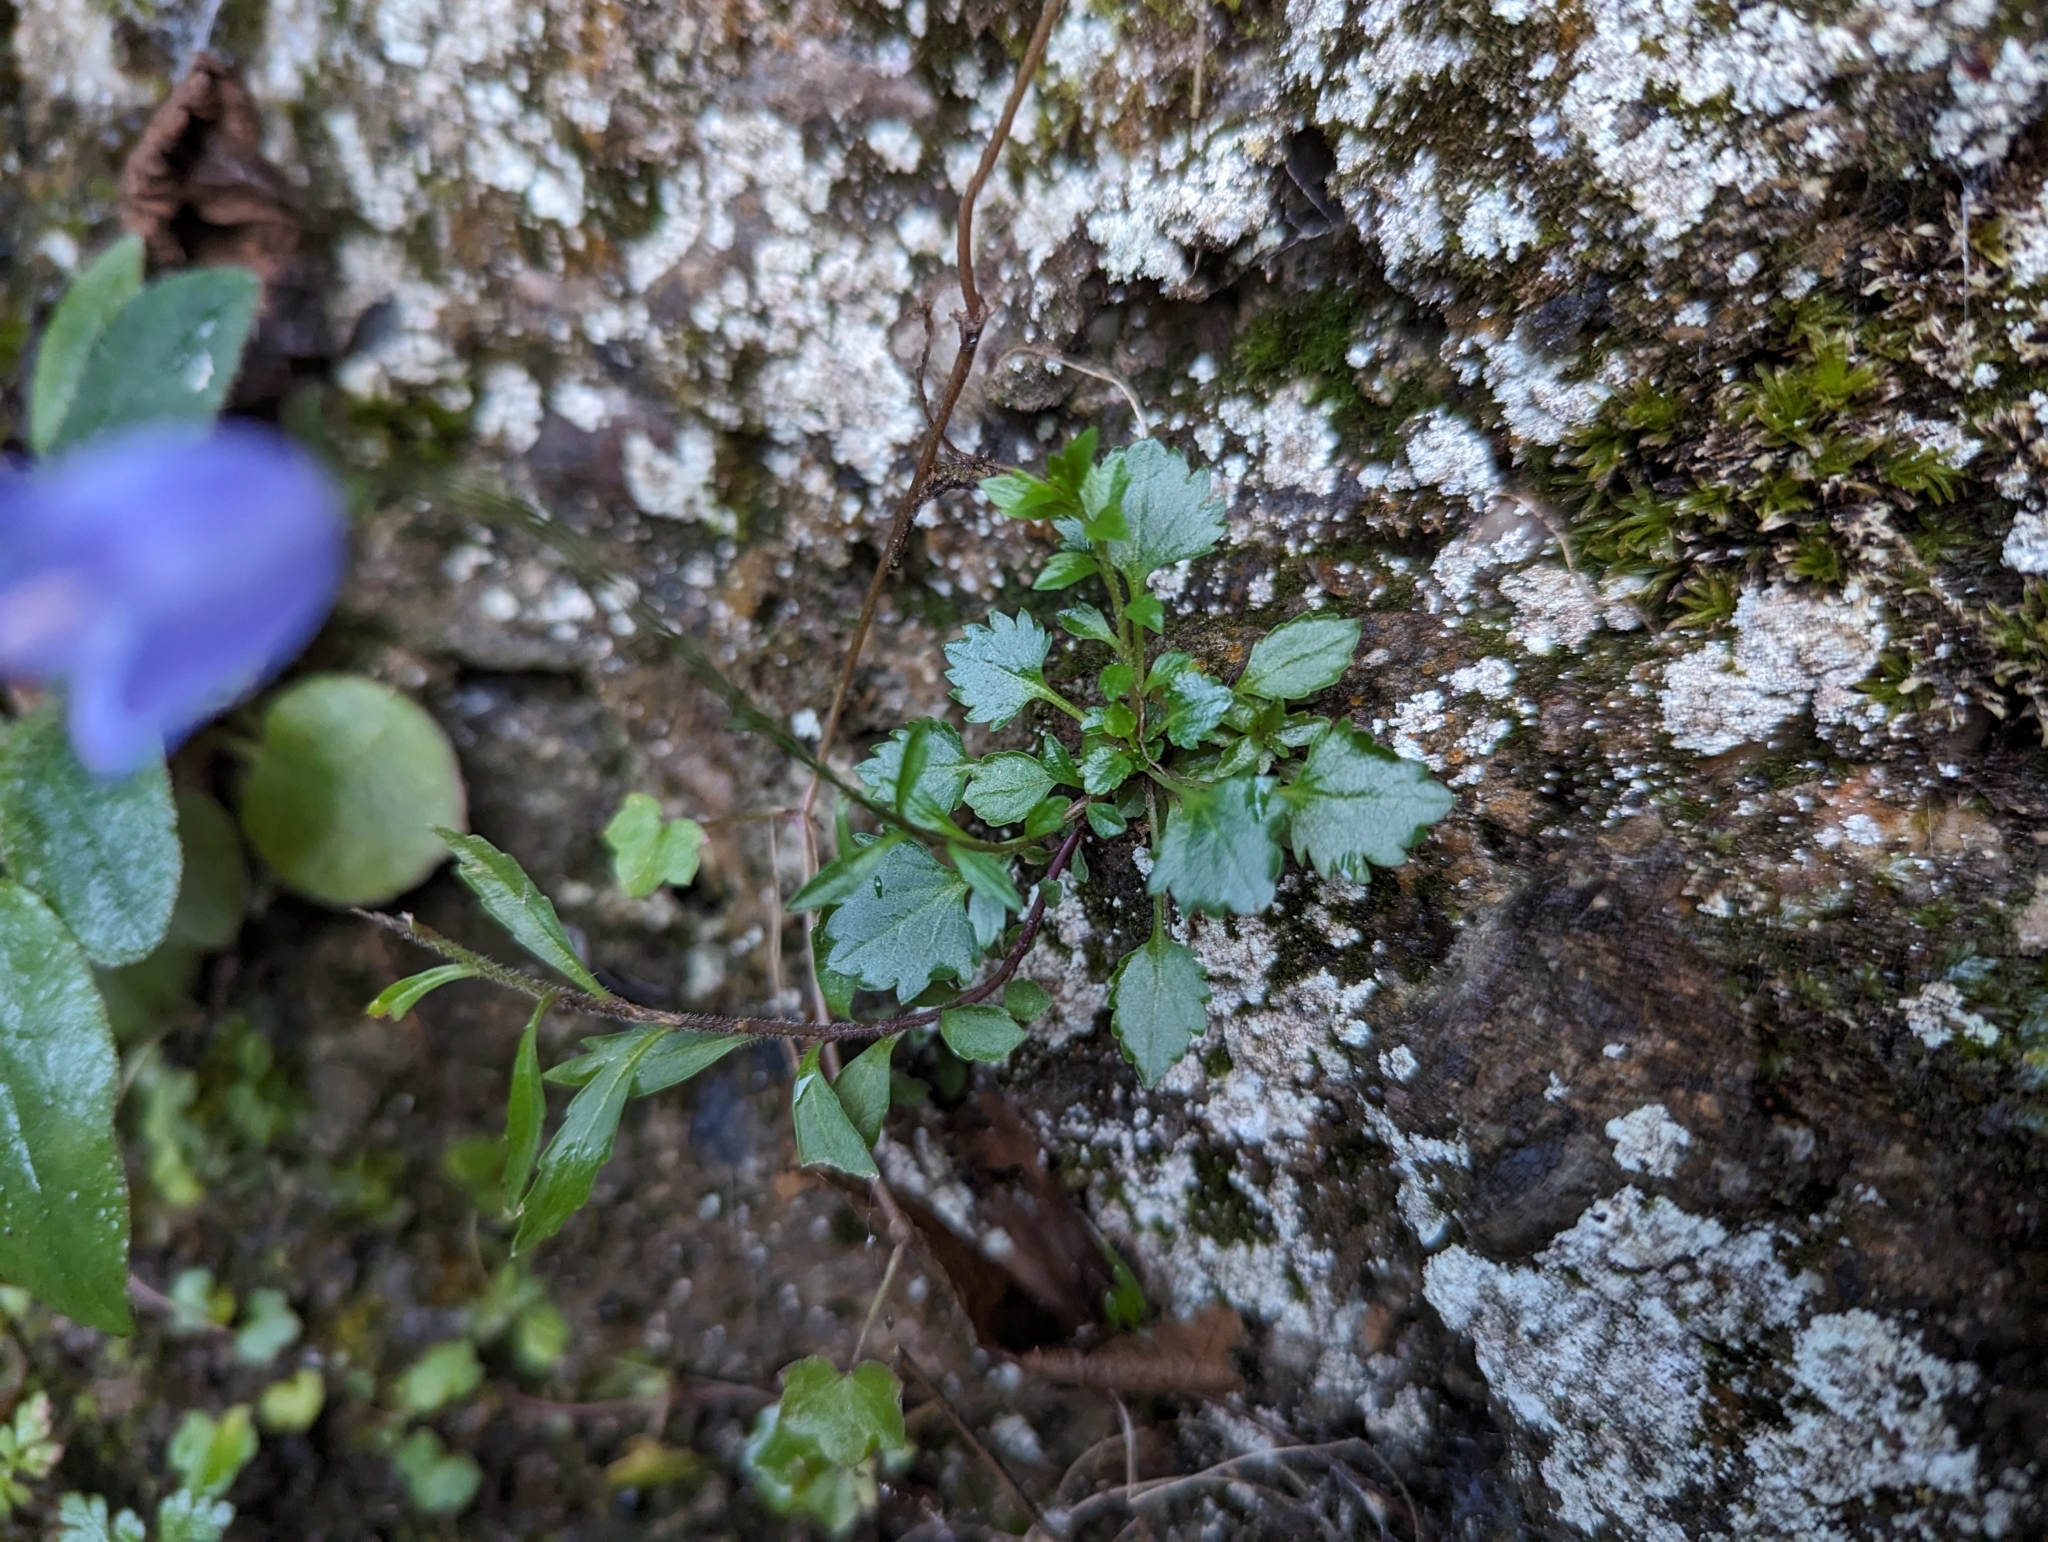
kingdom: Plantae
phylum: Tracheophyta
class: Magnoliopsida
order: Asterales
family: Campanulaceae
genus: Campanula
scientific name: Campanula cochleariifolia
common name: Fairies'-thimbles
